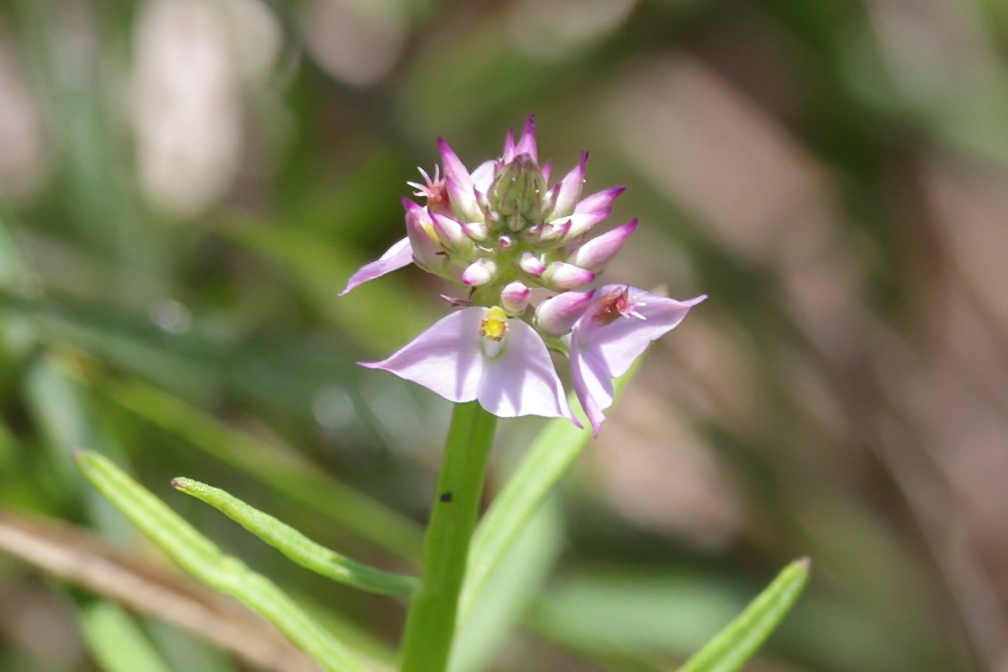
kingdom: Plantae
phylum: Tracheophyta
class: Magnoliopsida
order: Fabales
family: Polygalaceae
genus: Polygala
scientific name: Polygala cruciata
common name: Drumheads
